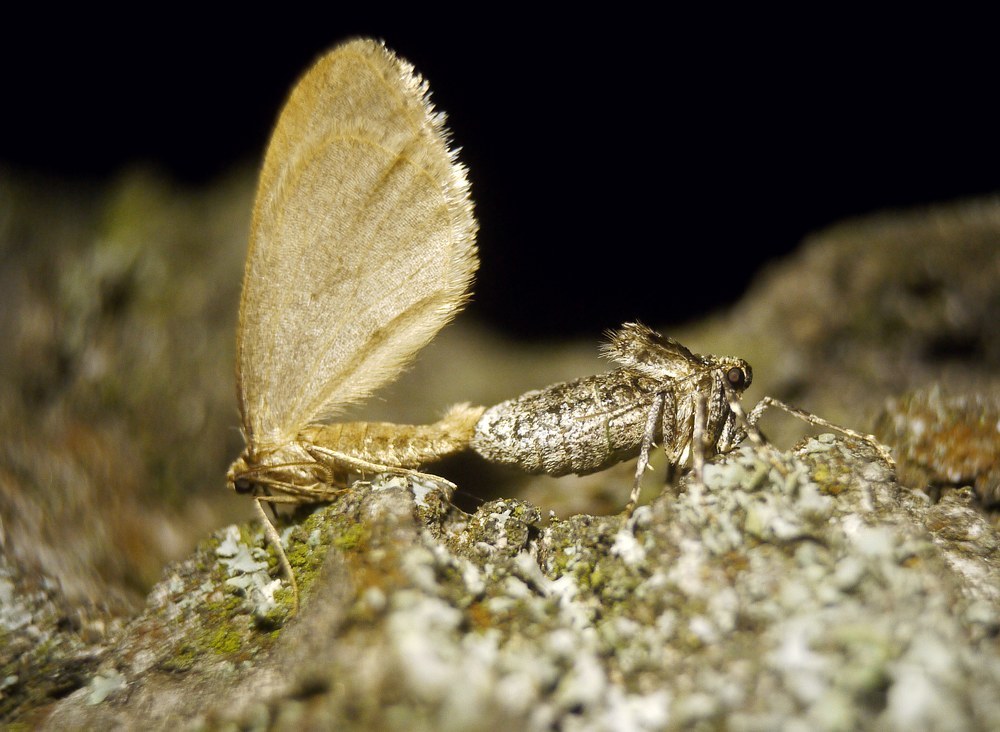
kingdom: Animalia
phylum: Arthropoda
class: Insecta
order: Lepidoptera
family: Geometridae
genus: Operophtera
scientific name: Operophtera brumata
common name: Winter moth
